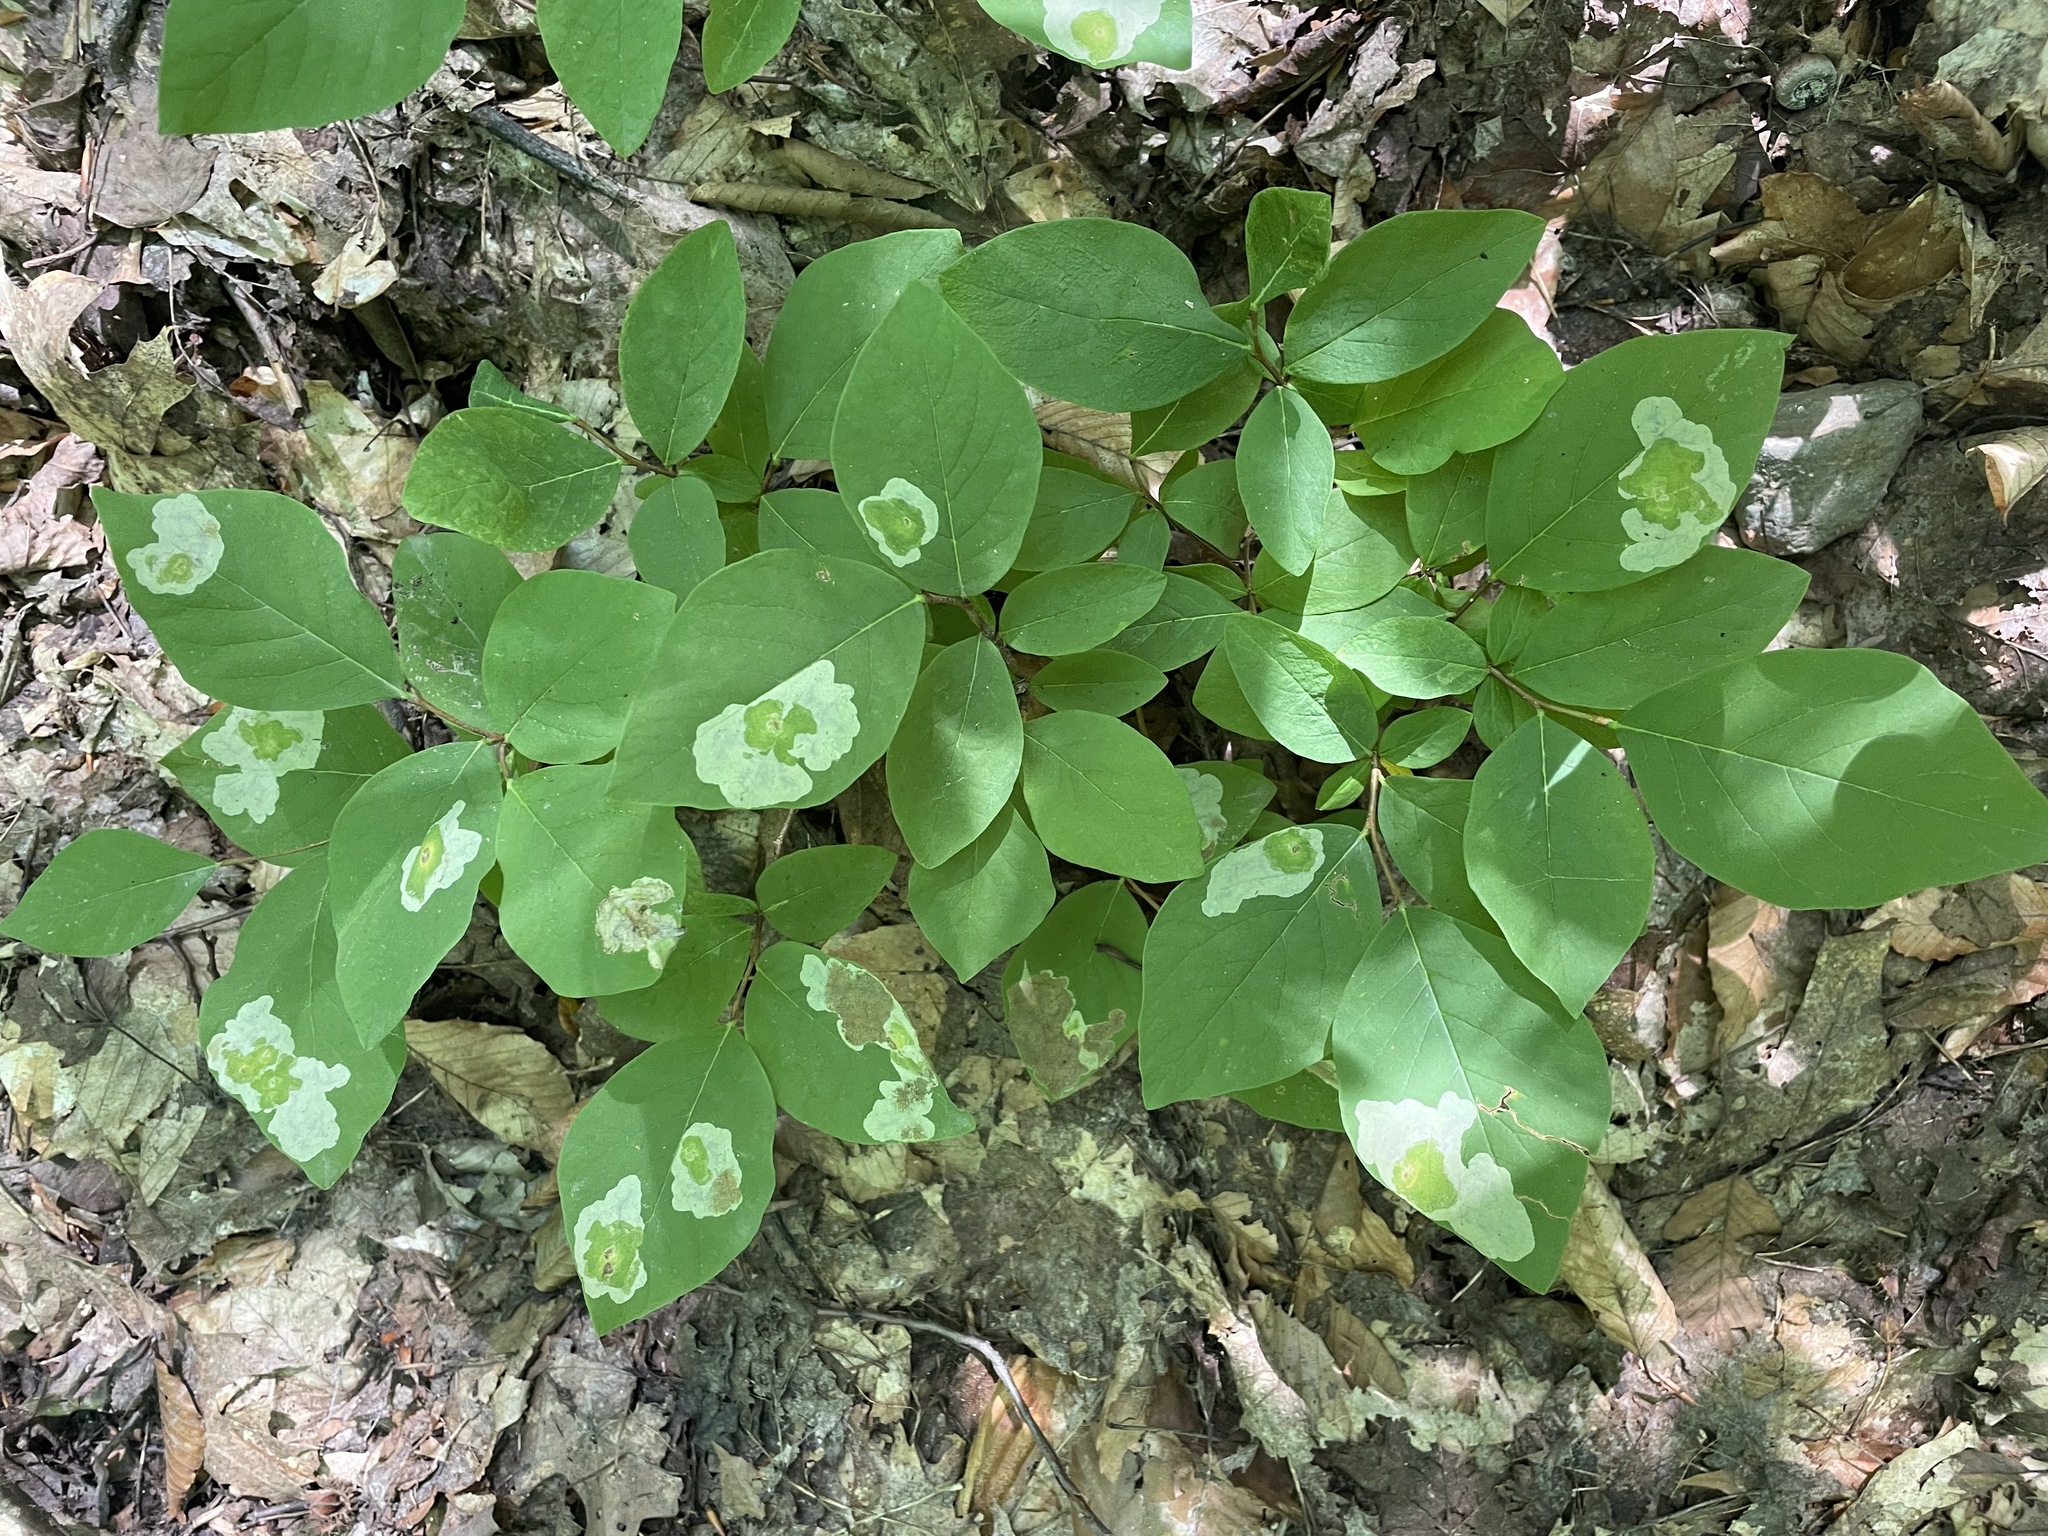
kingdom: Plantae
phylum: Tracheophyta
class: Magnoliopsida
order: Malvales
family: Thymelaeaceae
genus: Dirca
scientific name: Dirca palustris
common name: Leatherwood
